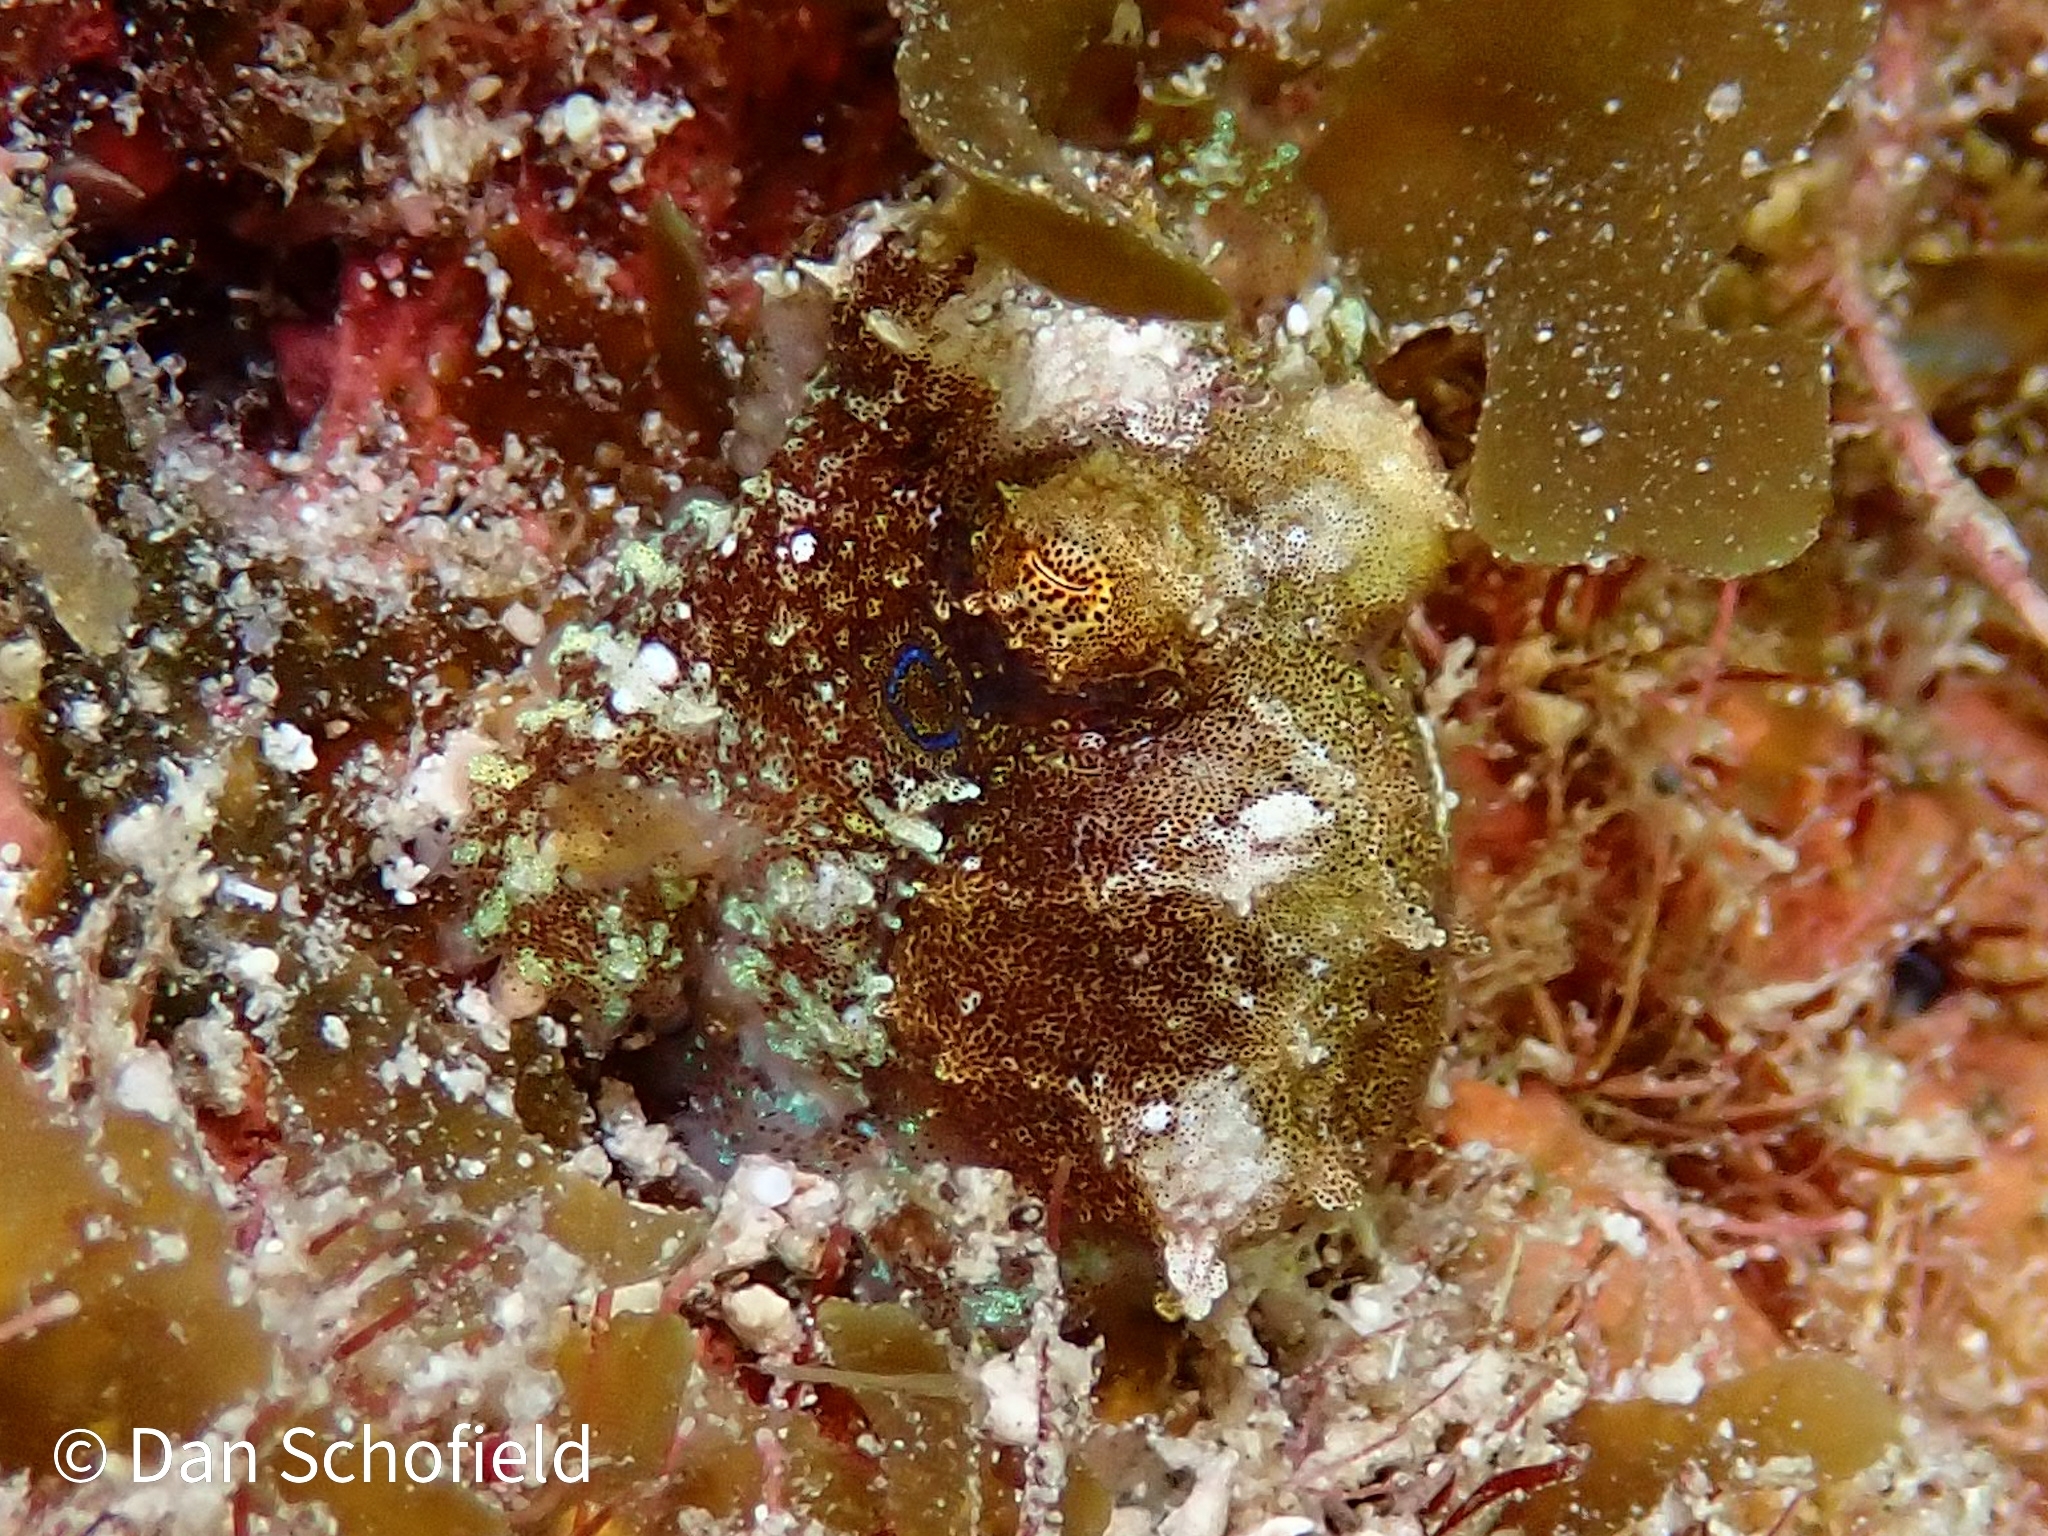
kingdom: Animalia
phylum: Mollusca
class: Cephalopoda
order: Octopoda
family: Octopodidae
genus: Octopus
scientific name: Octopus hummelincki
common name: Caribbean two-spot octopus
